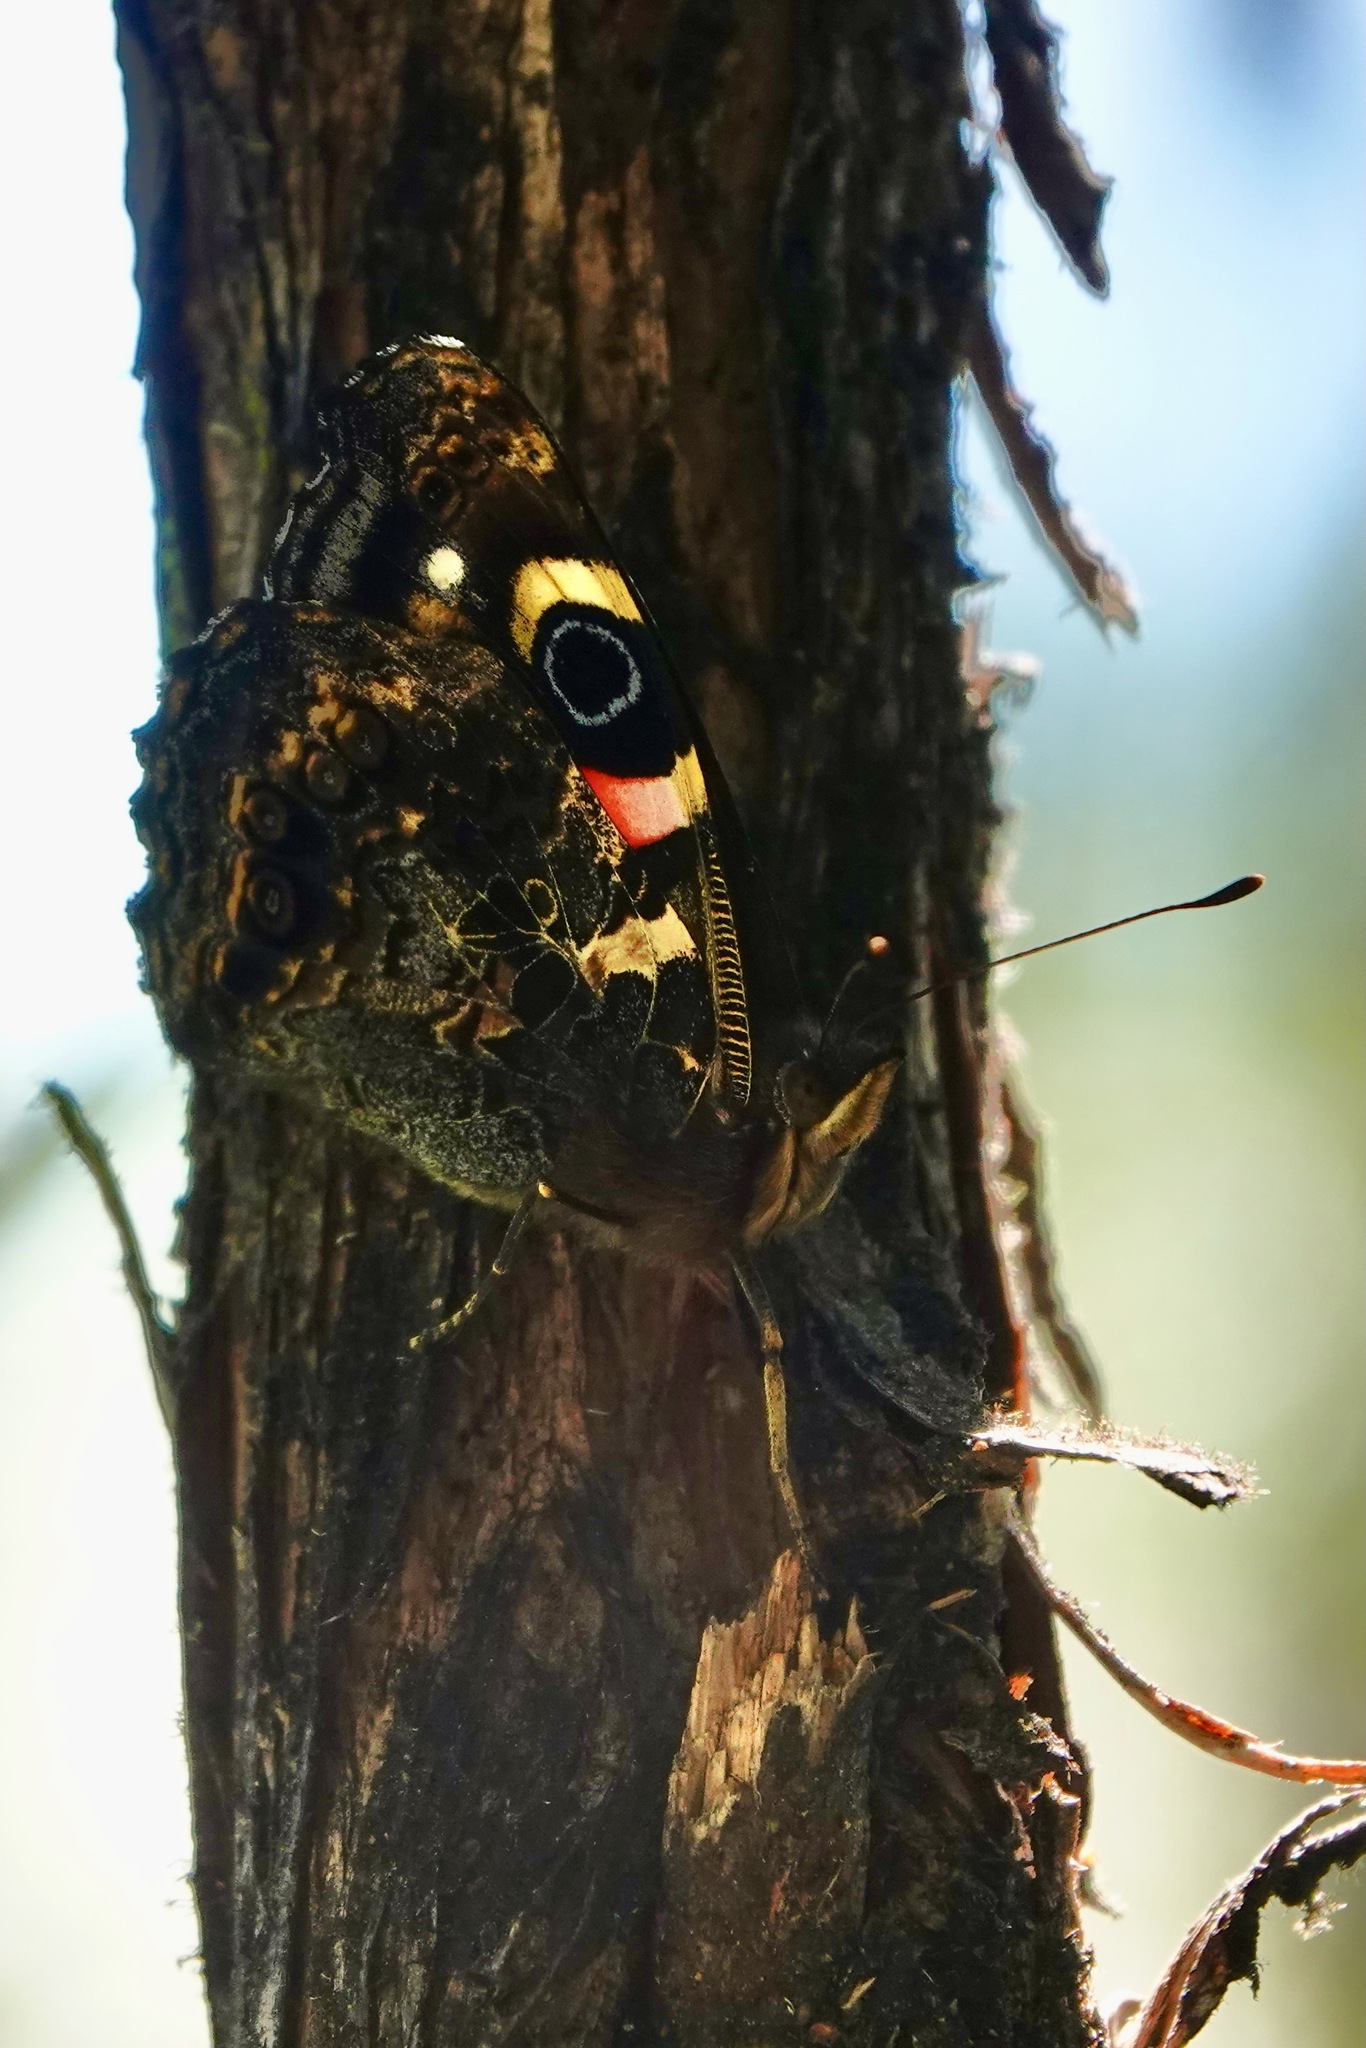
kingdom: Animalia
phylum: Arthropoda
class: Insecta
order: Lepidoptera
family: Nymphalidae
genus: Vanessa
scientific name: Vanessa gonerilla
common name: New zealand red admiral
